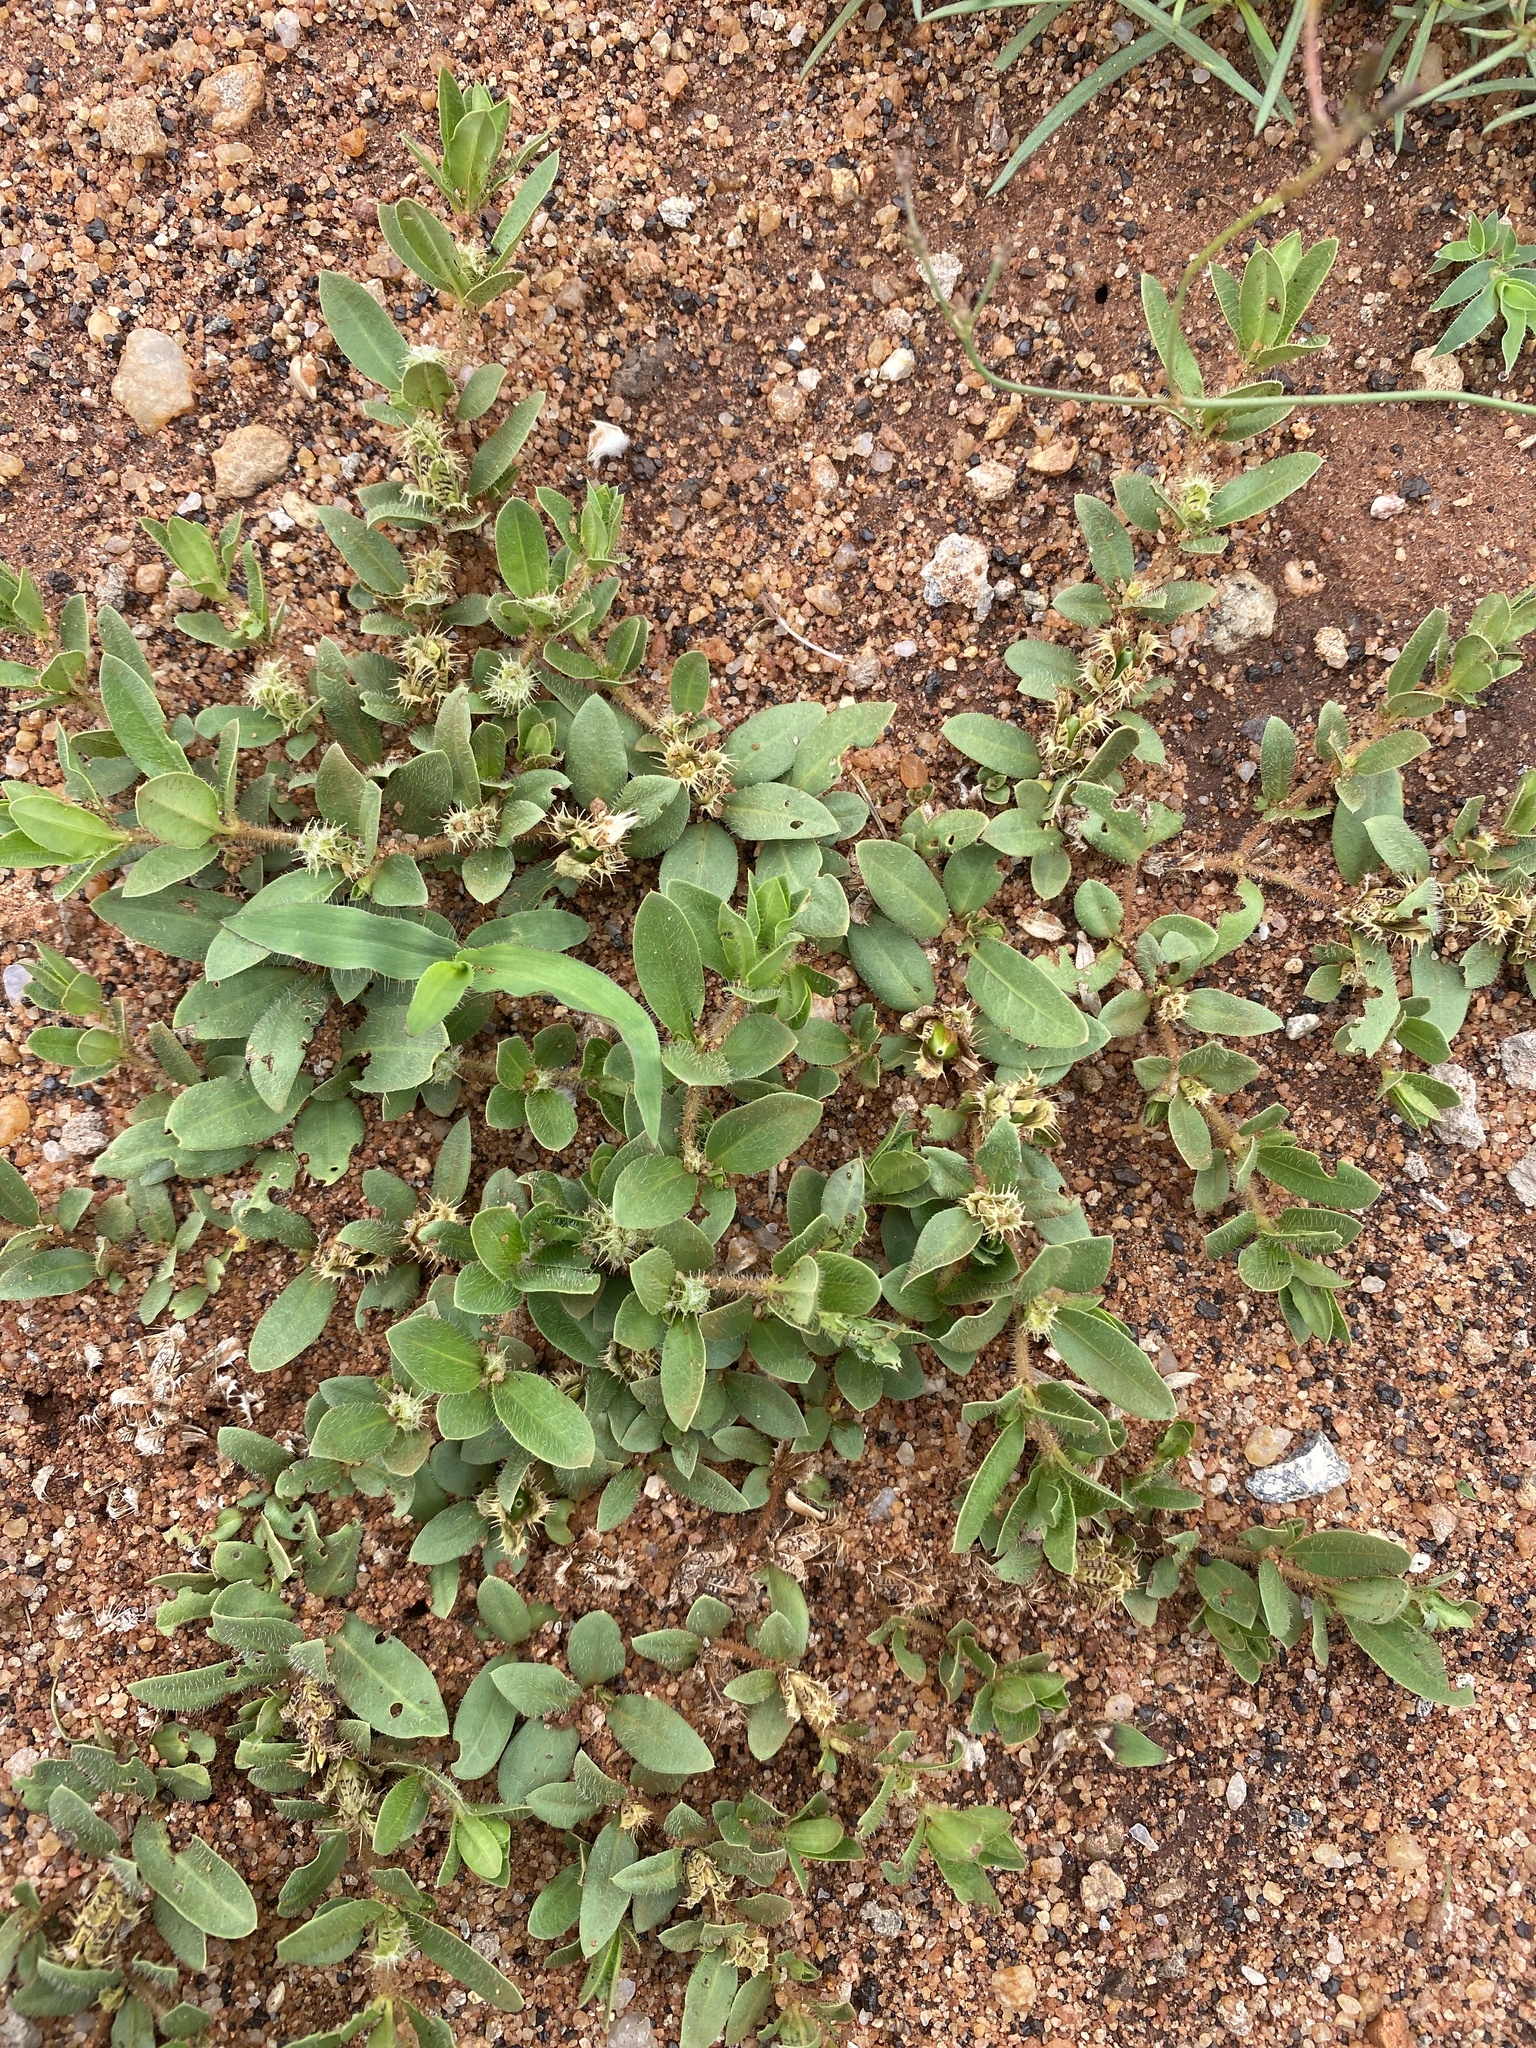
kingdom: Plantae
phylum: Tracheophyta
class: Magnoliopsida
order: Lamiales
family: Acanthaceae
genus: Blepharis
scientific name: Blepharis integrifolia
